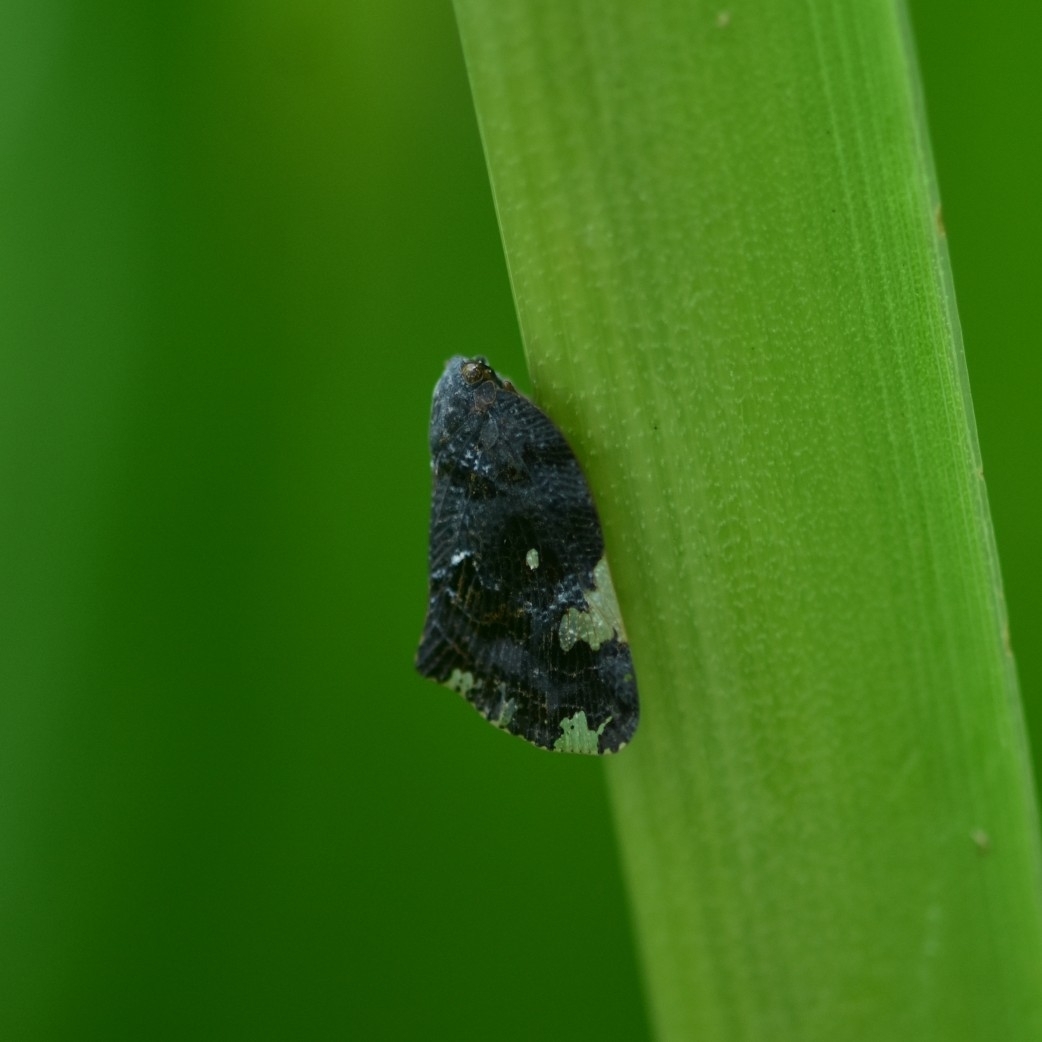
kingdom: Animalia
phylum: Arthropoda
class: Insecta
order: Hemiptera
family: Ricaniidae
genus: Ricania
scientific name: Ricania speculum
